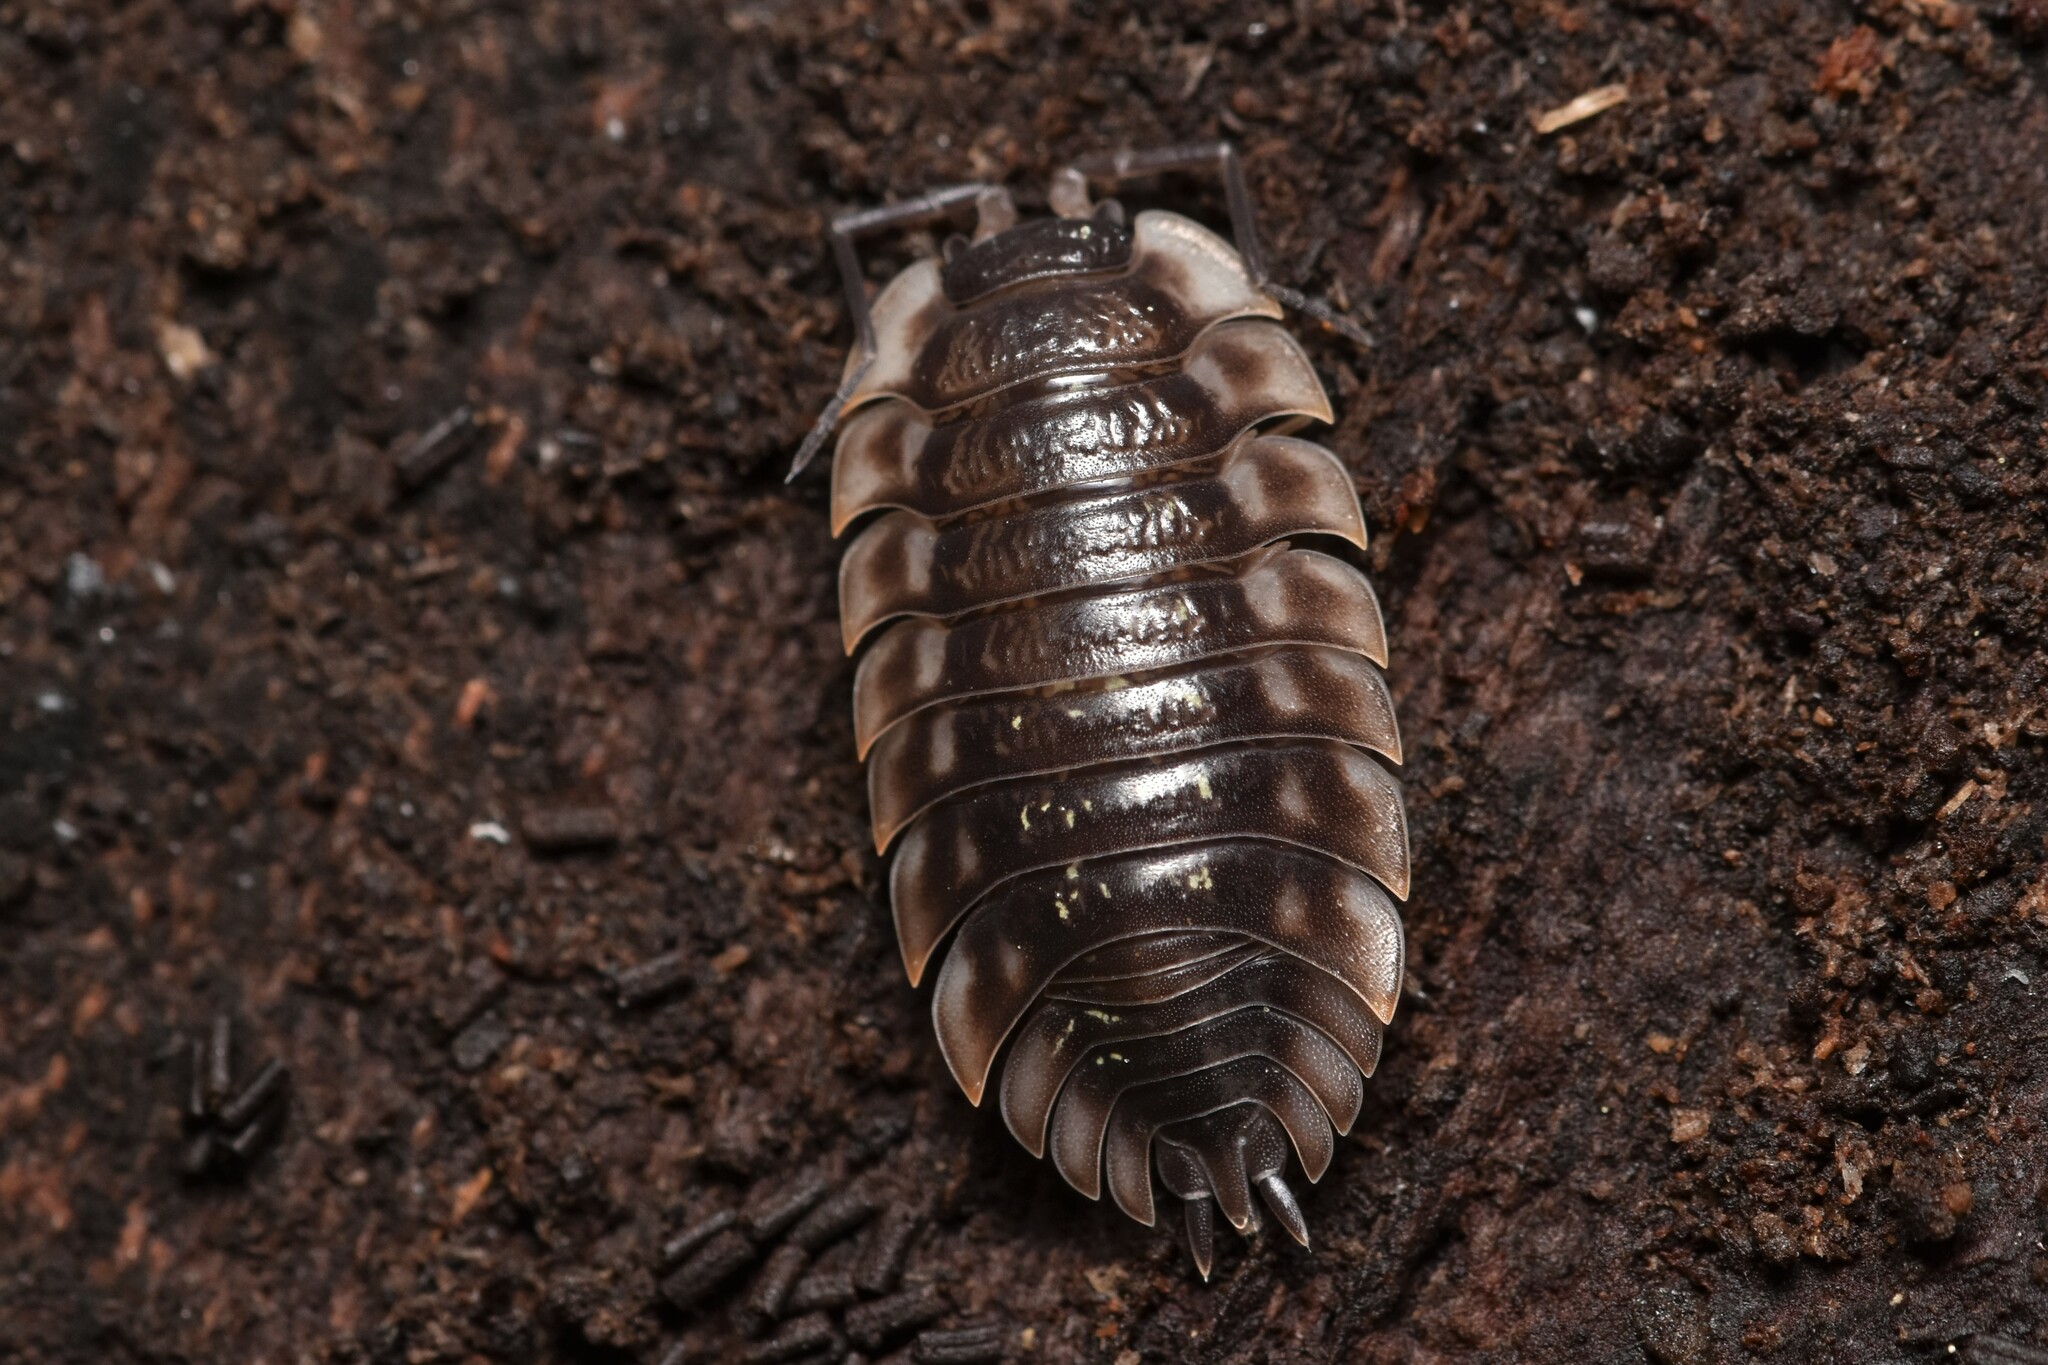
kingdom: Animalia
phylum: Arthropoda
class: Malacostraca
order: Isopoda
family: Oniscidae
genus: Oniscus
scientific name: Oniscus asellus
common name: Common shiny woodlouse
